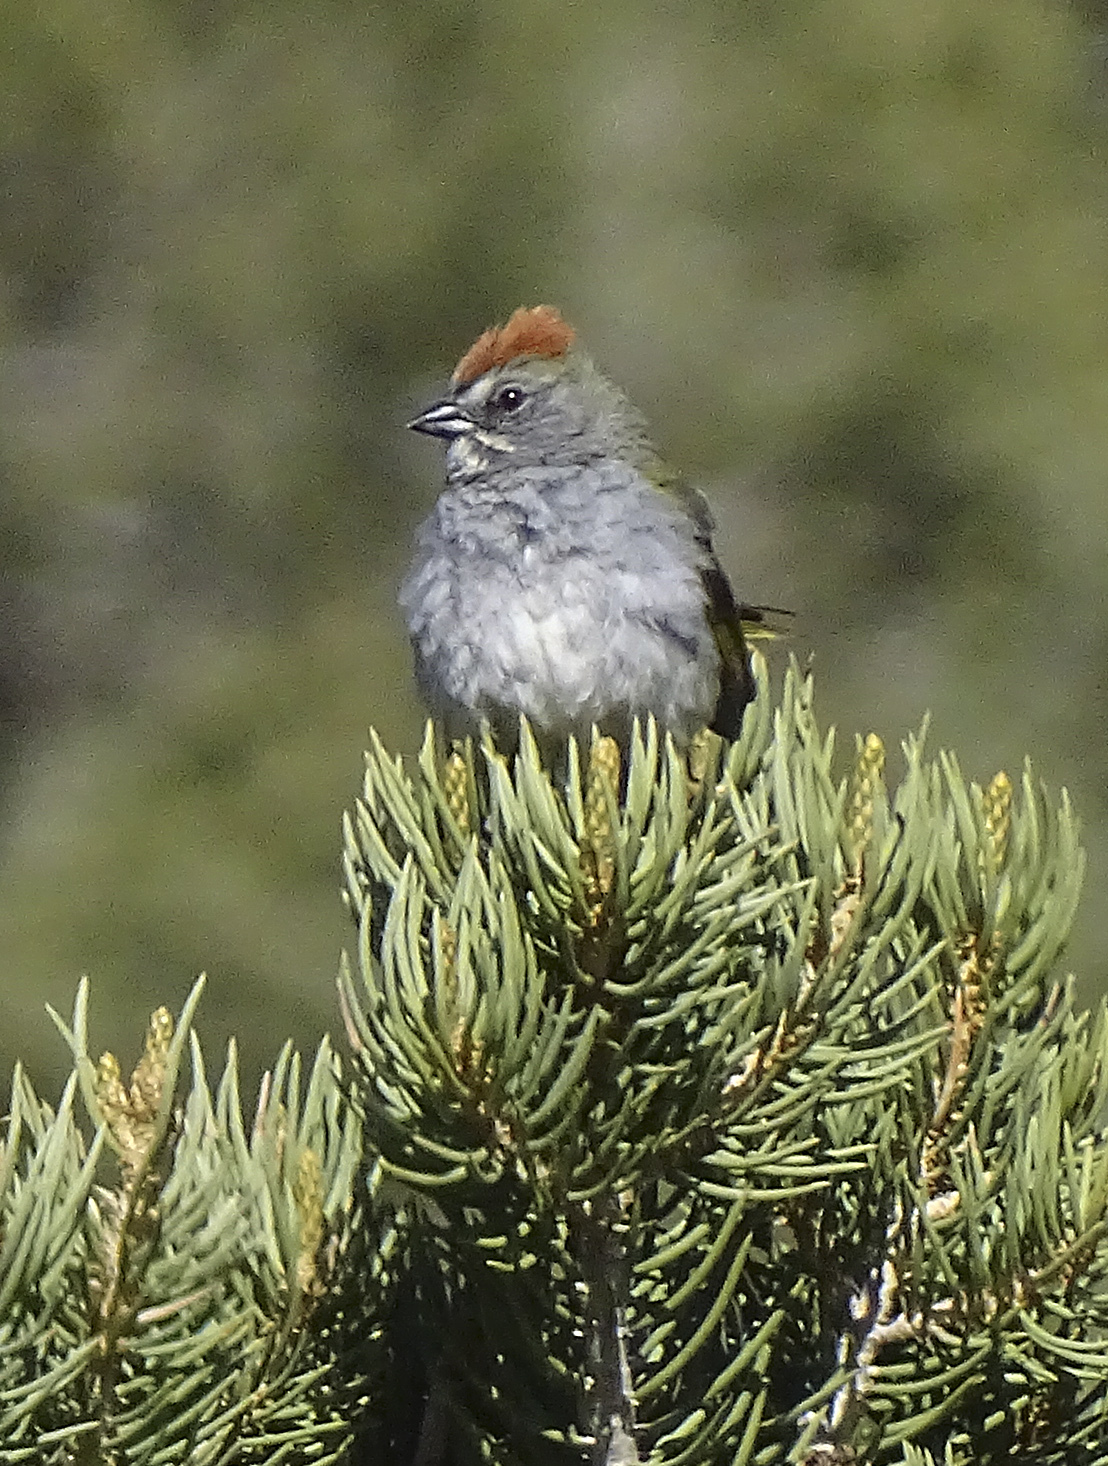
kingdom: Animalia
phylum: Chordata
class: Aves
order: Passeriformes
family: Passerellidae
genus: Pipilo
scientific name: Pipilo chlorurus
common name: Green-tailed towhee
